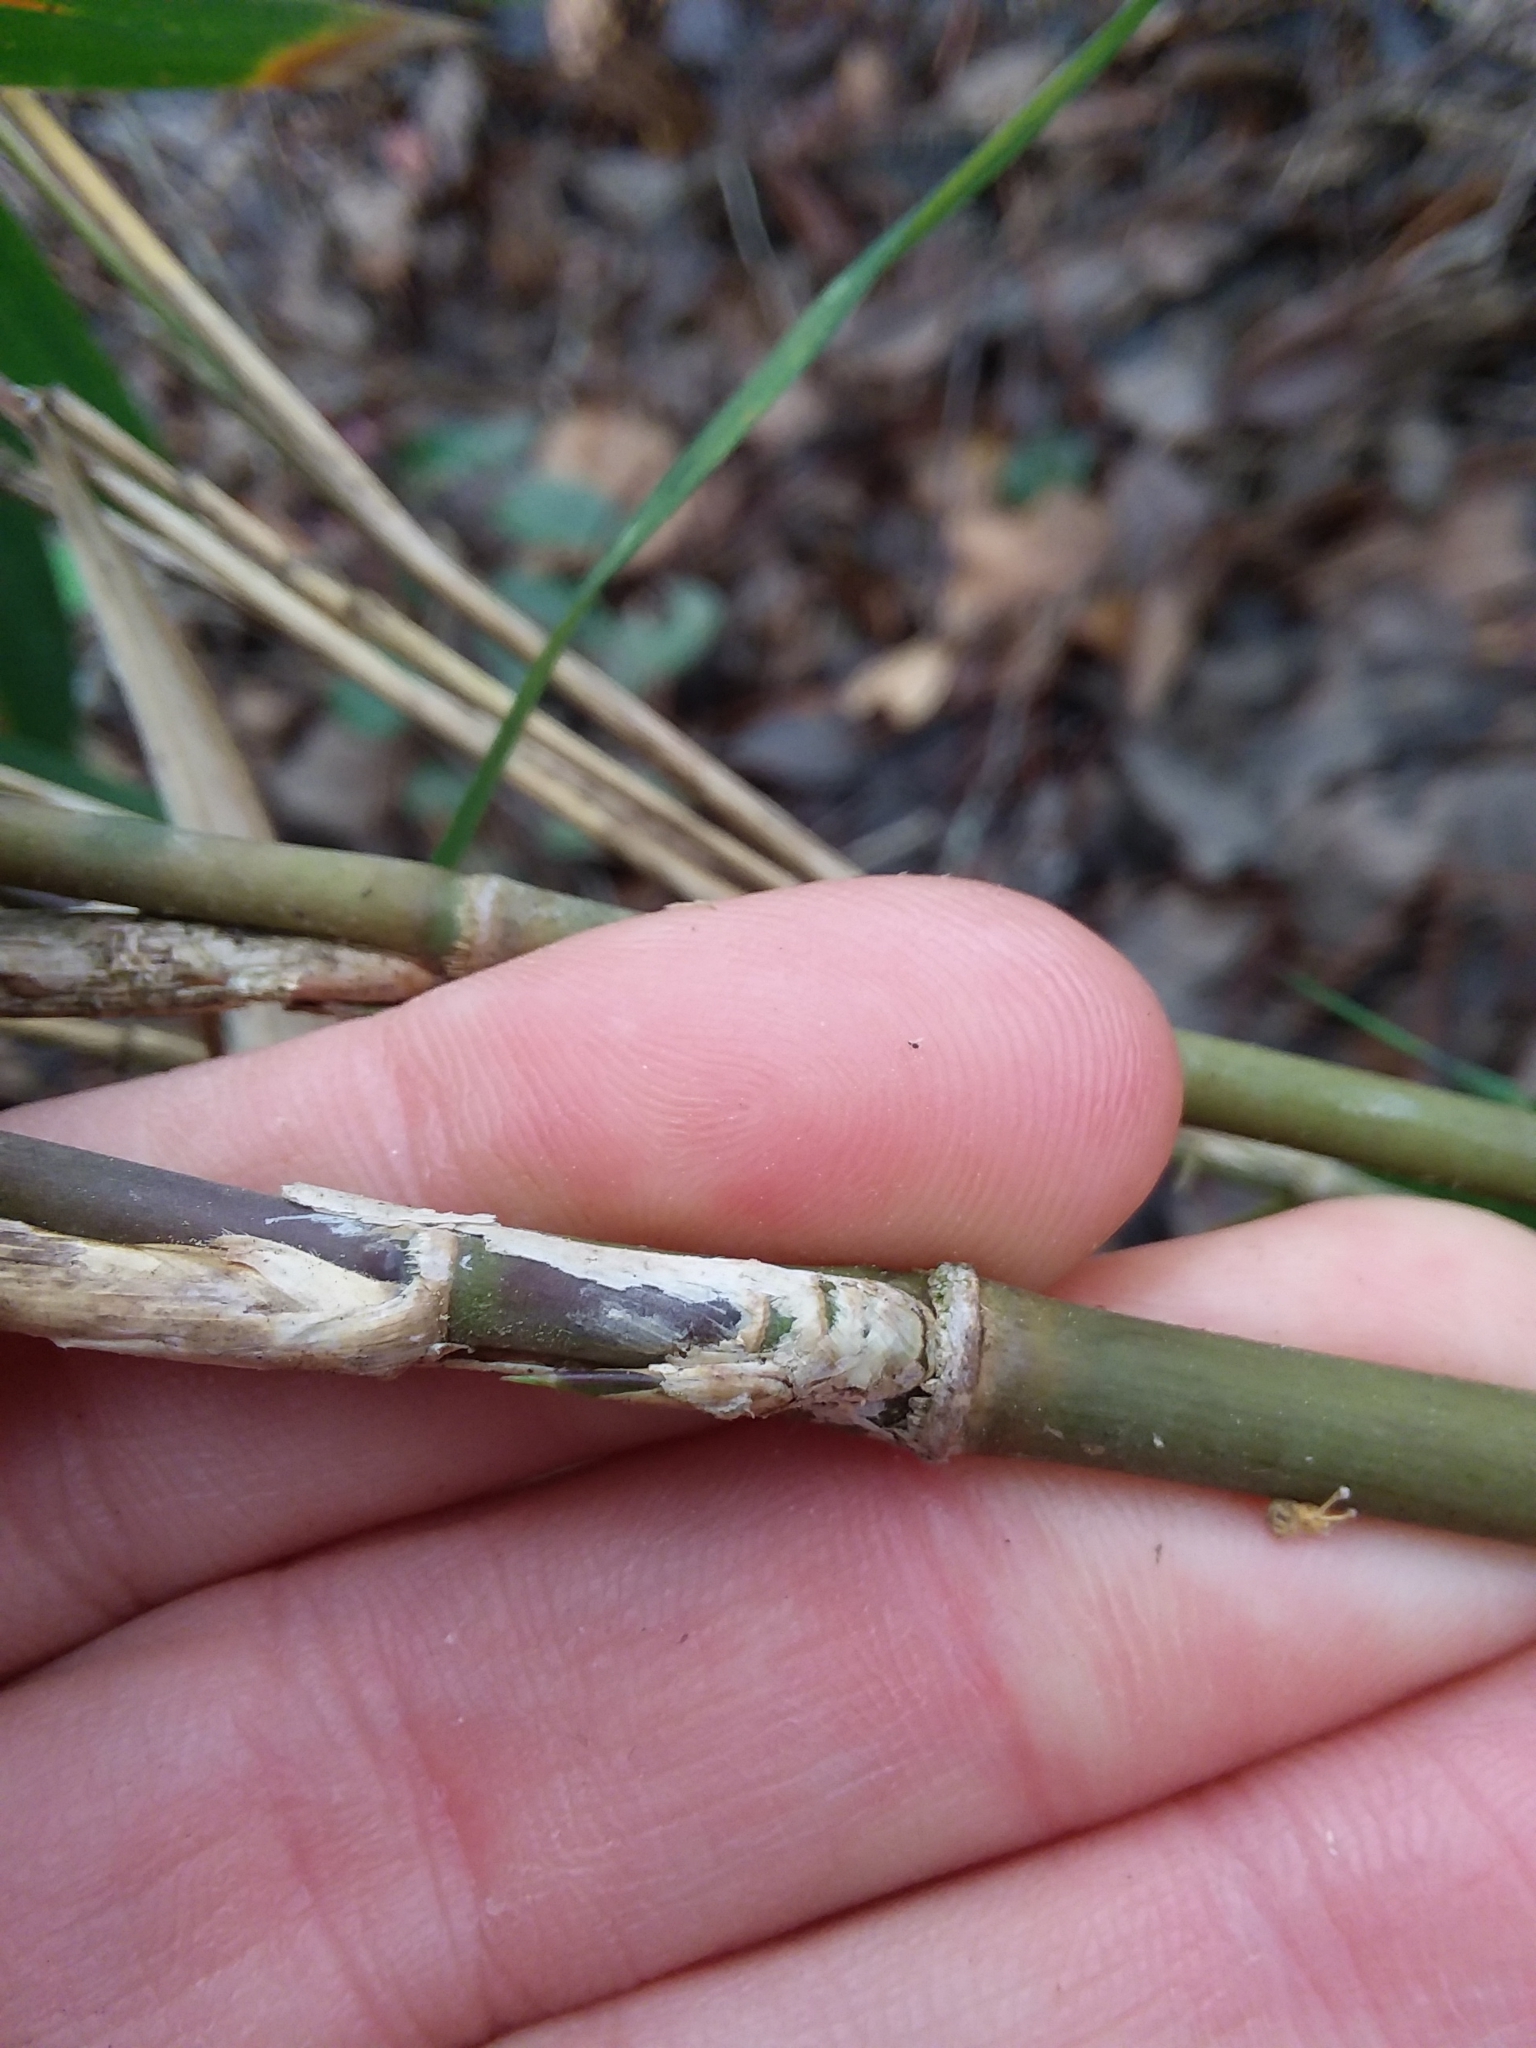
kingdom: Plantae
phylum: Tracheophyta
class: Liliopsida
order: Poales
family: Poaceae
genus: Arundinaria
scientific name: Arundinaria tecta
